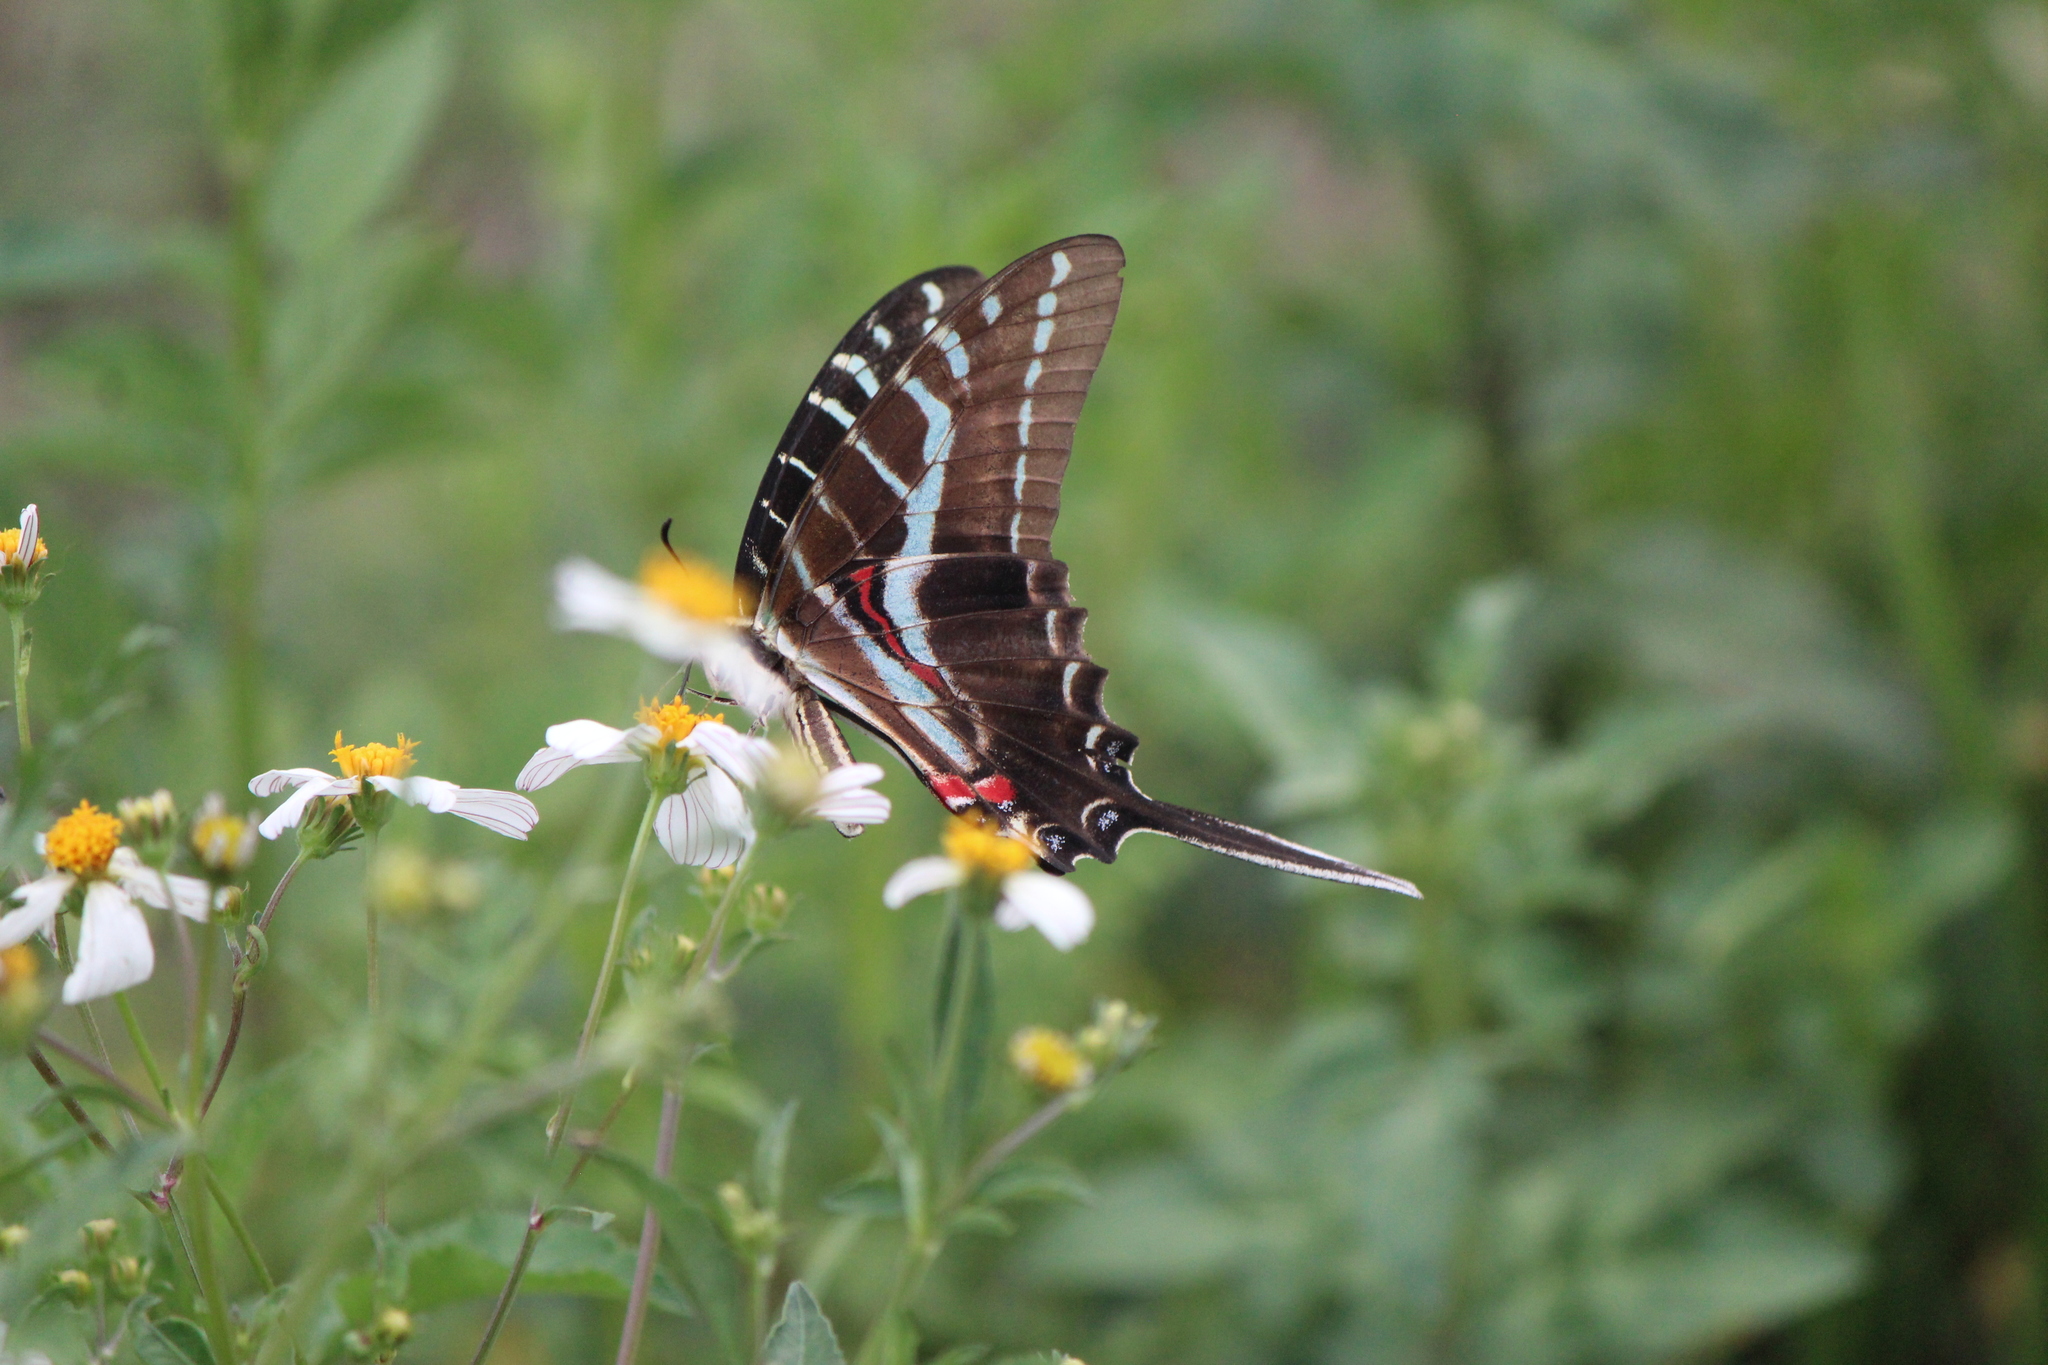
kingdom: Animalia
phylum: Arthropoda
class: Insecta
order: Lepidoptera
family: Papilionidae
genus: Protographium
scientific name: Protographium philolaus
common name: Dark zebra swallowtail
